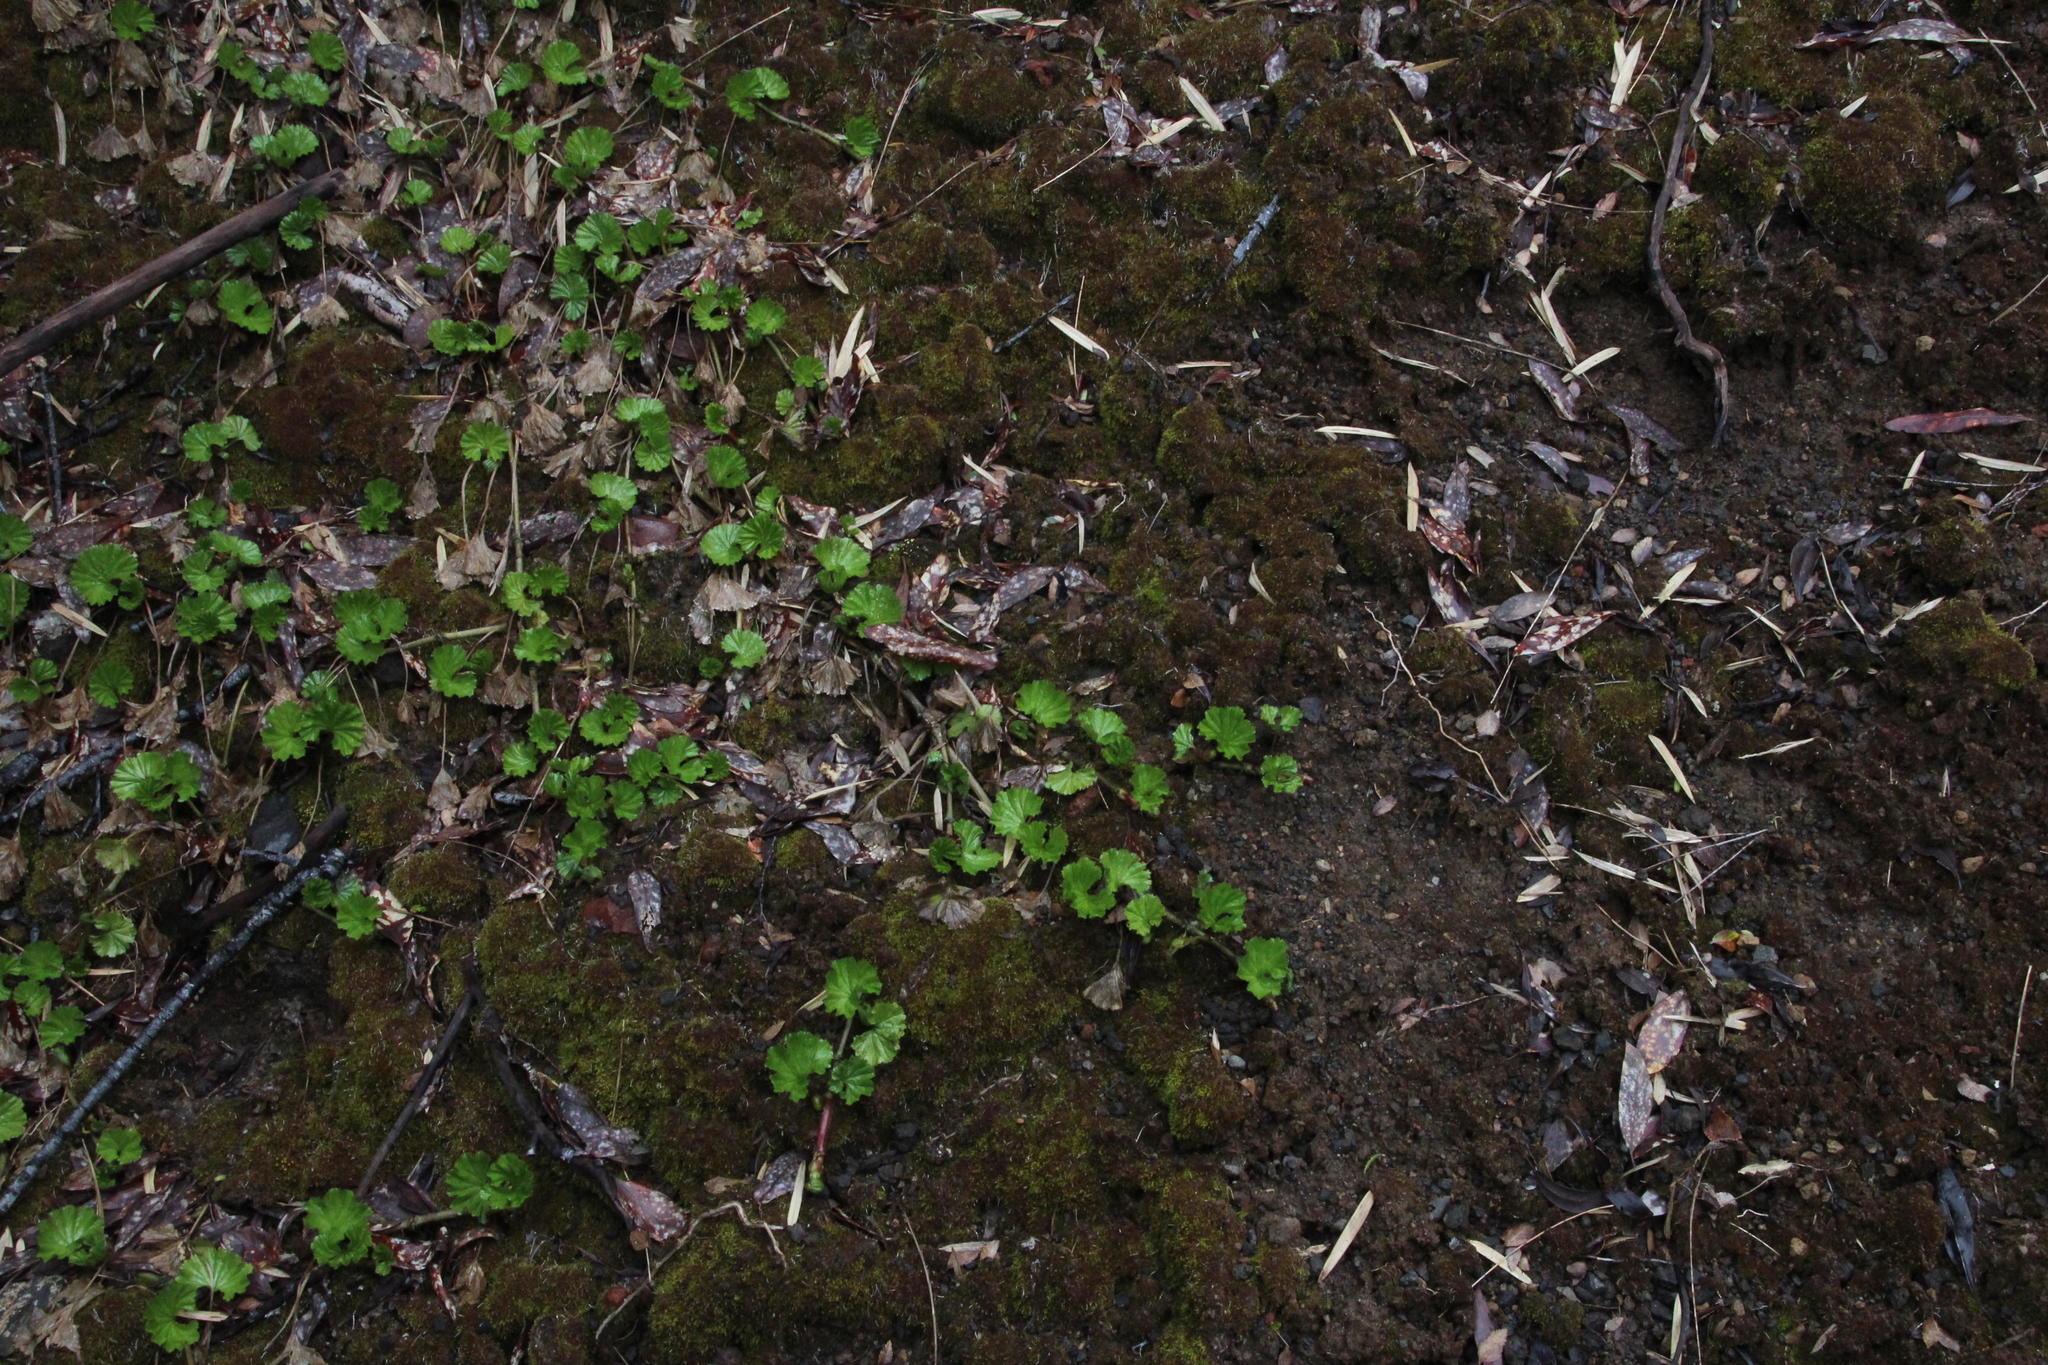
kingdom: Plantae
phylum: Tracheophyta
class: Magnoliopsida
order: Gunnerales
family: Gunneraceae
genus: Gunnera
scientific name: Gunnera magellanica
